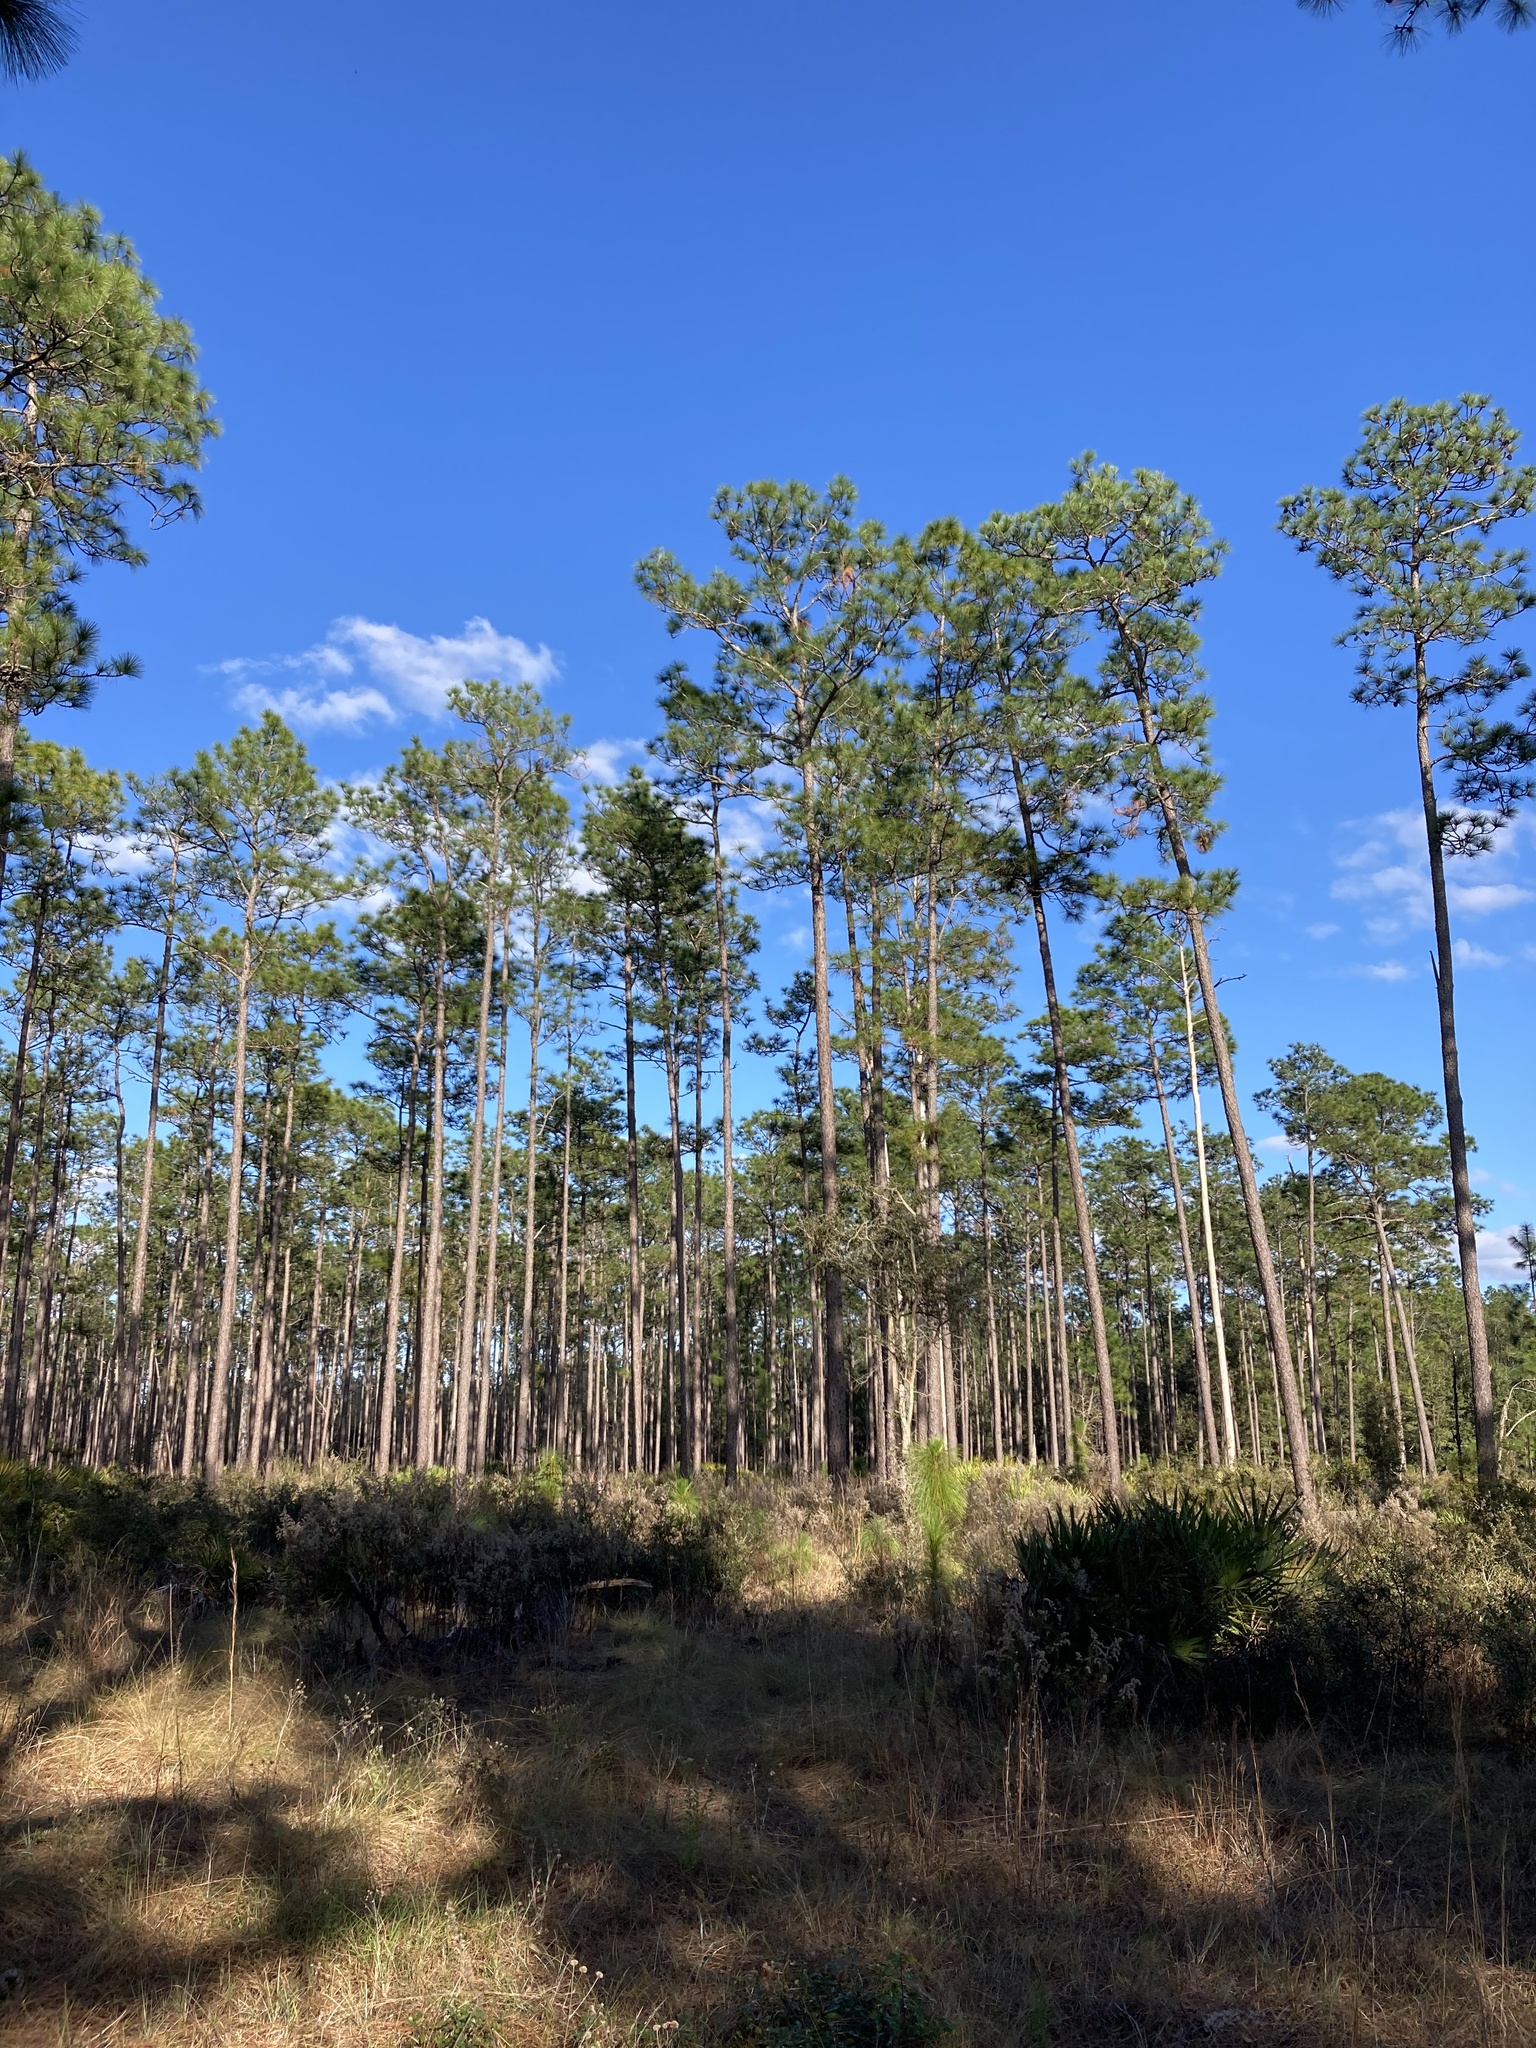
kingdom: Plantae
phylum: Tracheophyta
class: Pinopsida
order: Pinales
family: Pinaceae
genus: Pinus
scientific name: Pinus palustris
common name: Longleaf pine
